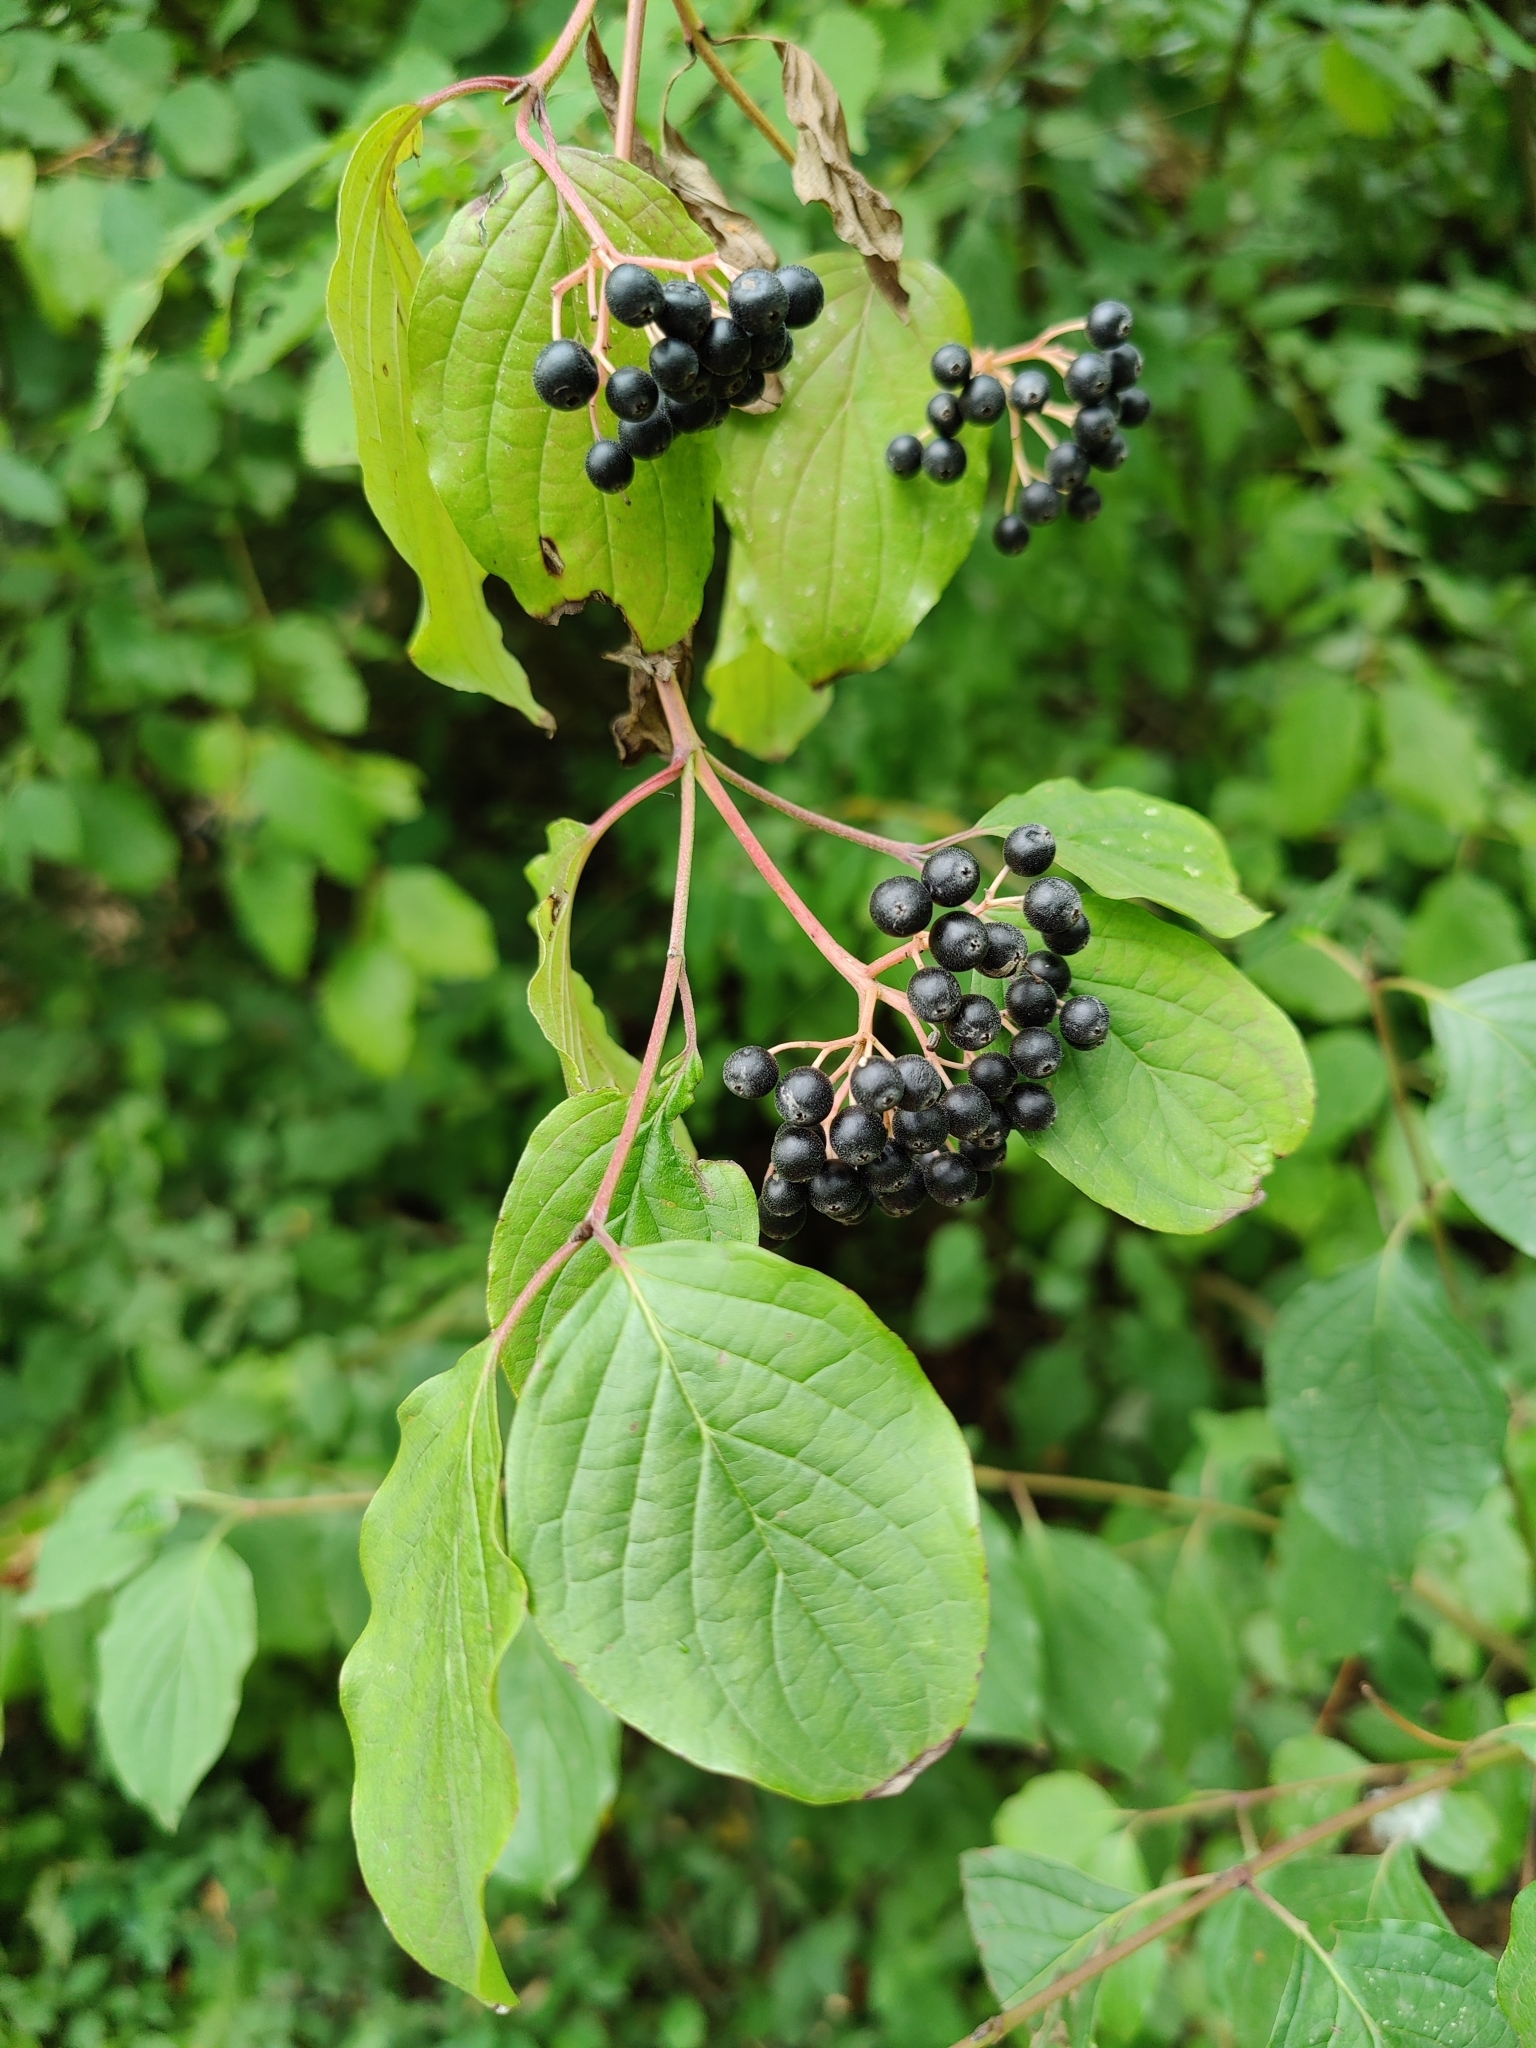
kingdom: Plantae
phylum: Tracheophyta
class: Magnoliopsida
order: Cornales
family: Cornaceae
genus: Cornus
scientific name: Cornus sanguinea
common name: Dogwood
